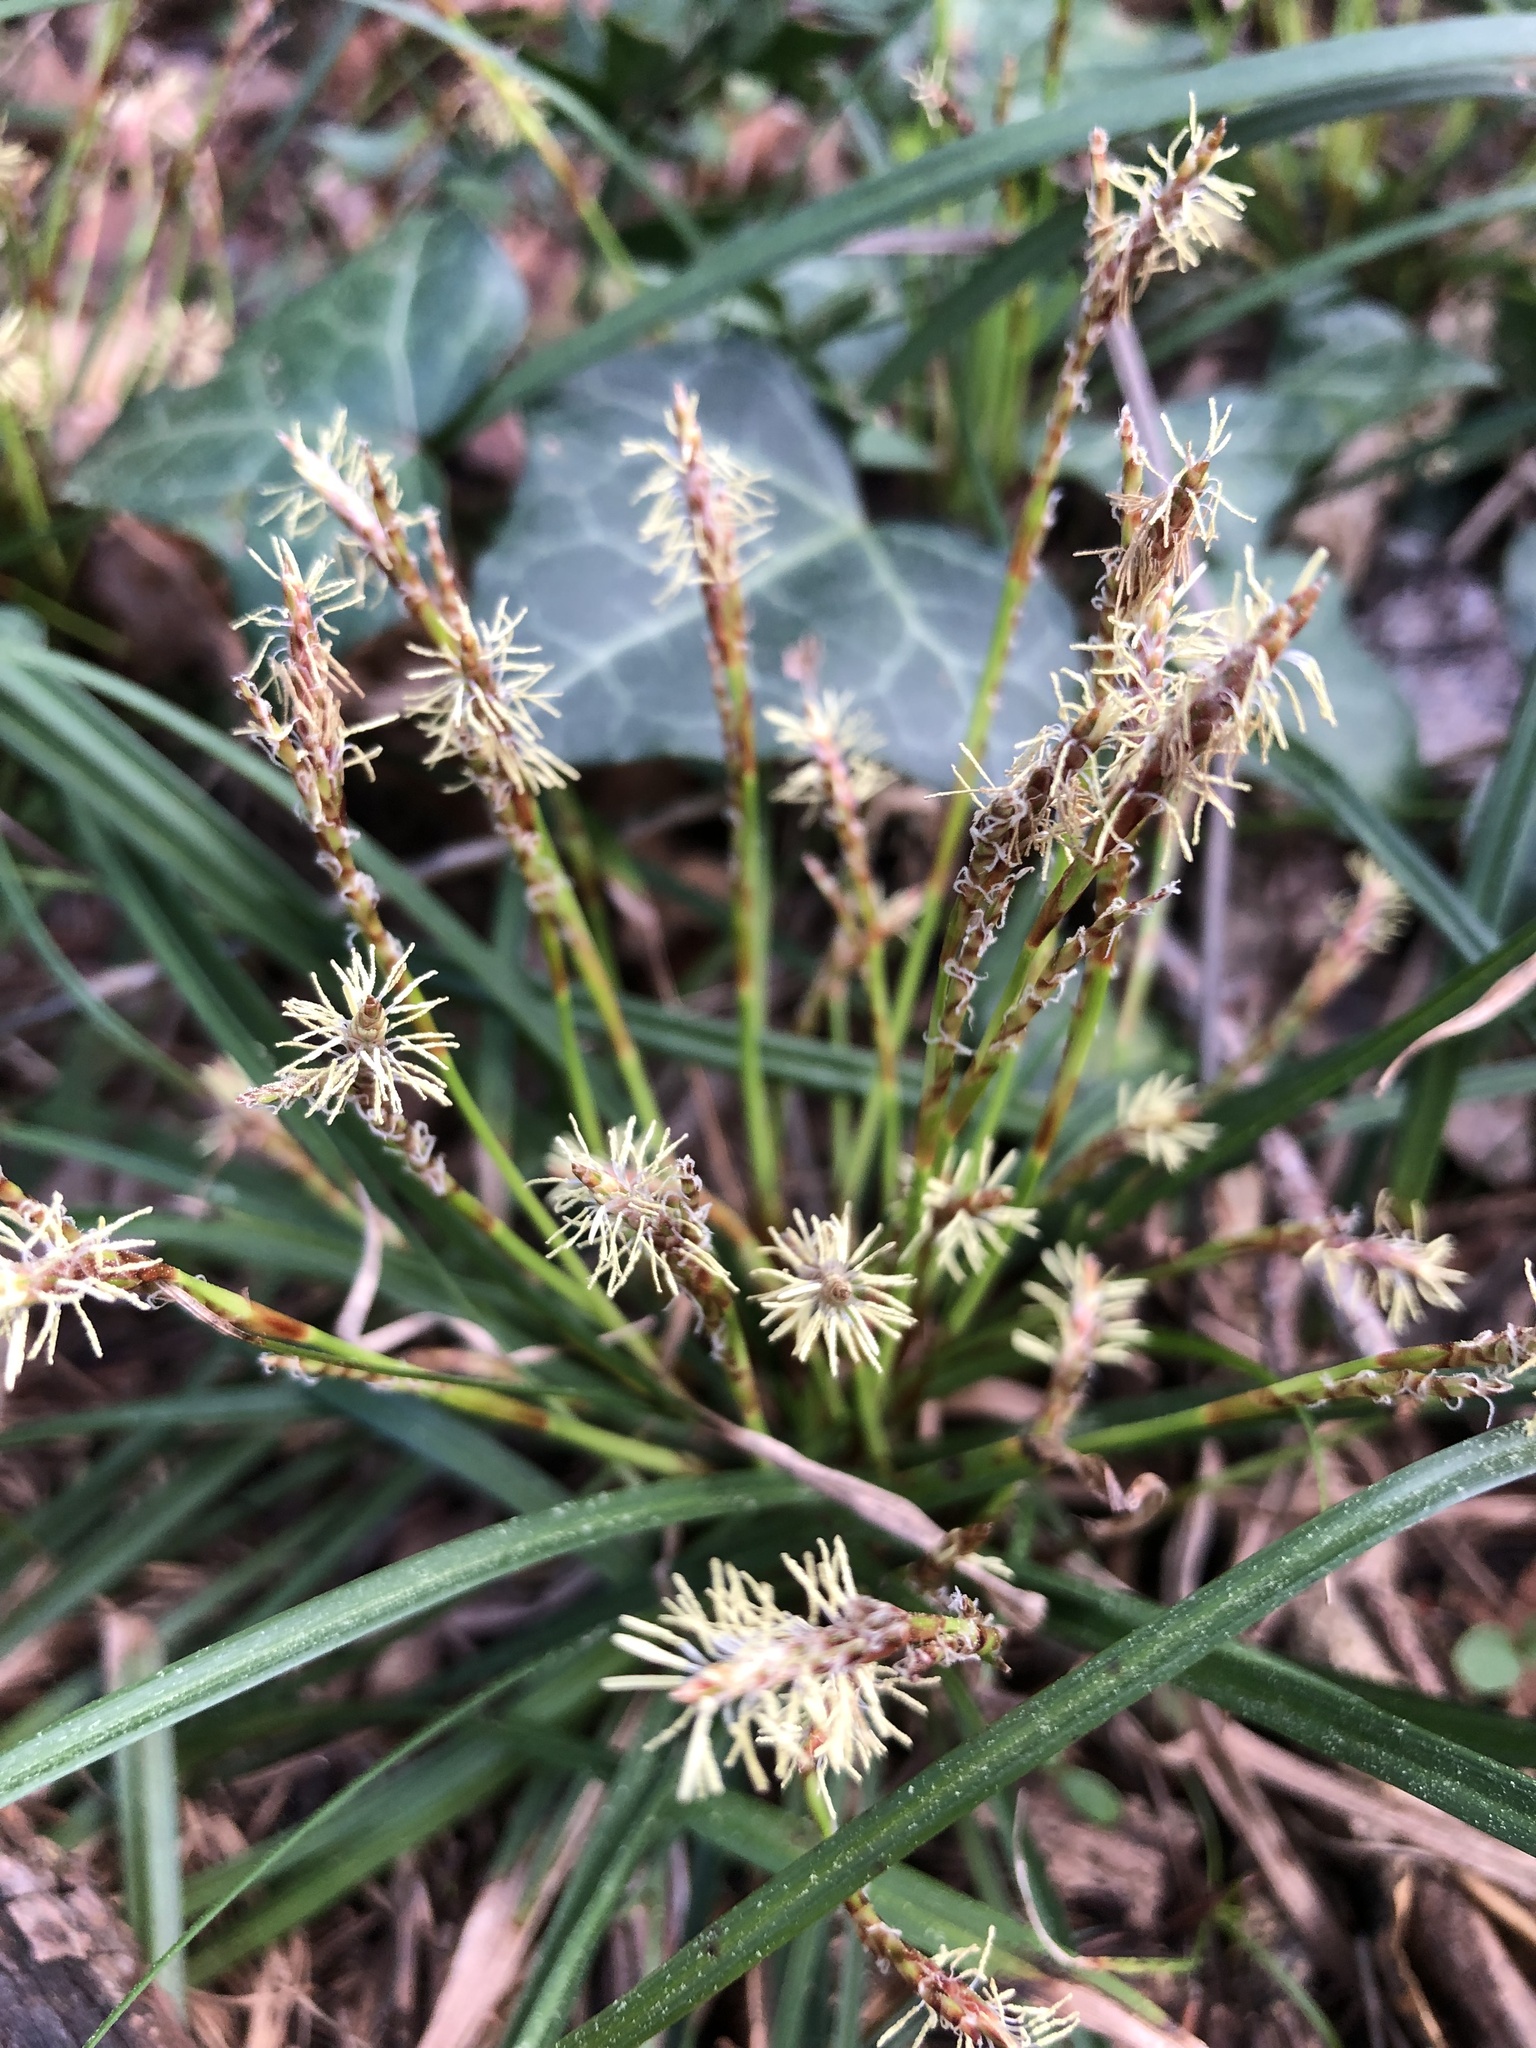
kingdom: Plantae
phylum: Tracheophyta
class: Liliopsida
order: Poales
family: Cyperaceae
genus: Carex
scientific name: Carex digitata
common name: Fingered sedge
